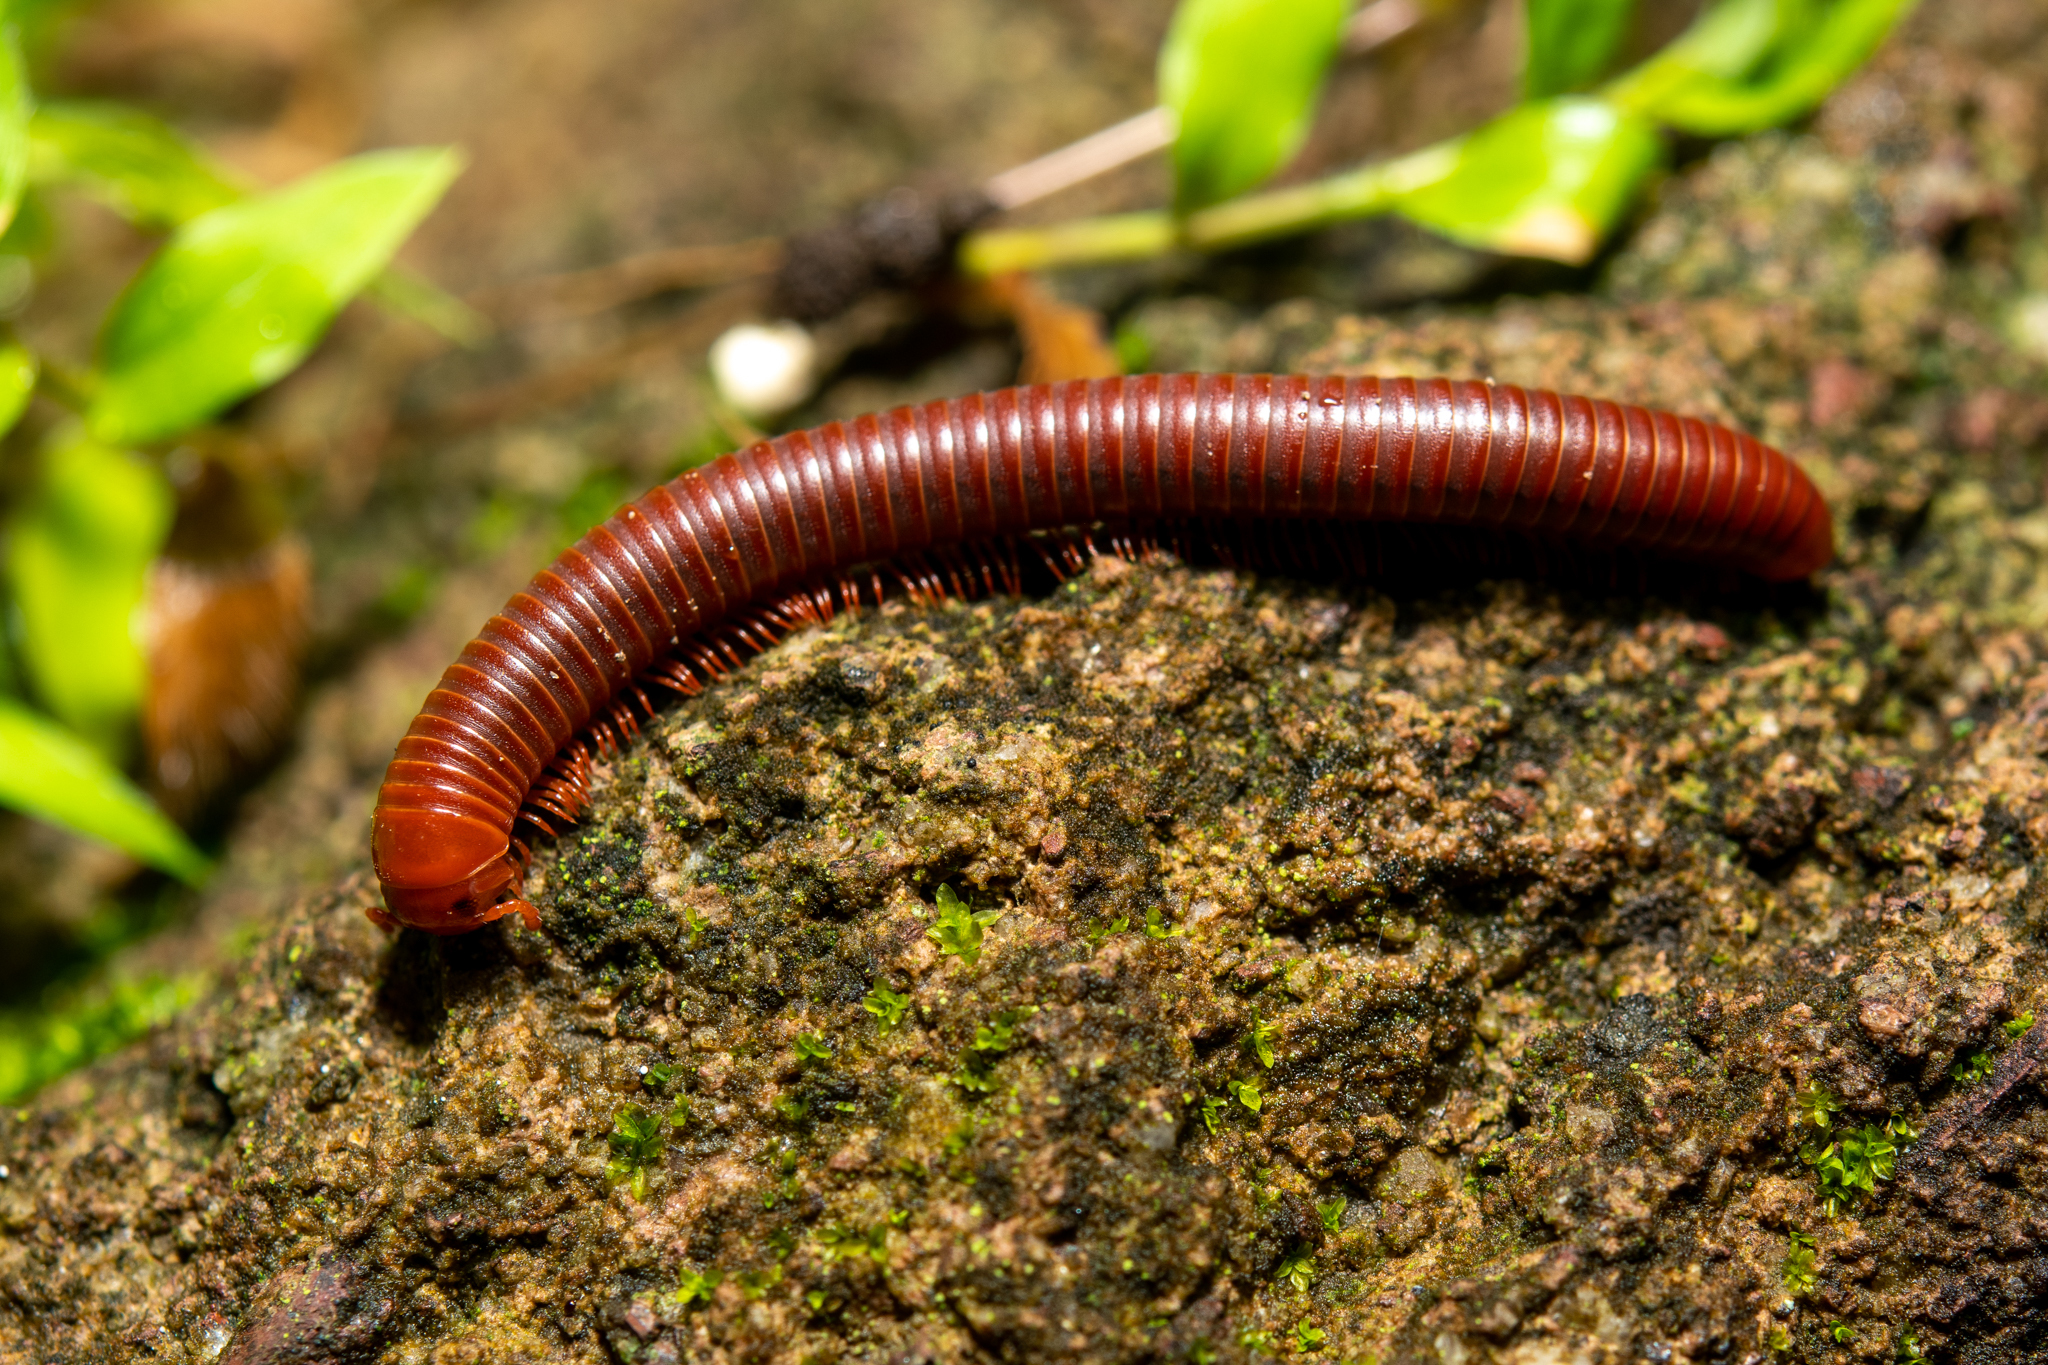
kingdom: Animalia
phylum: Arthropoda
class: Diplopoda
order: Spirobolida
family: Pachybolidae
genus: Trigoniulus
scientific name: Trigoniulus corallinus
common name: Millipede
